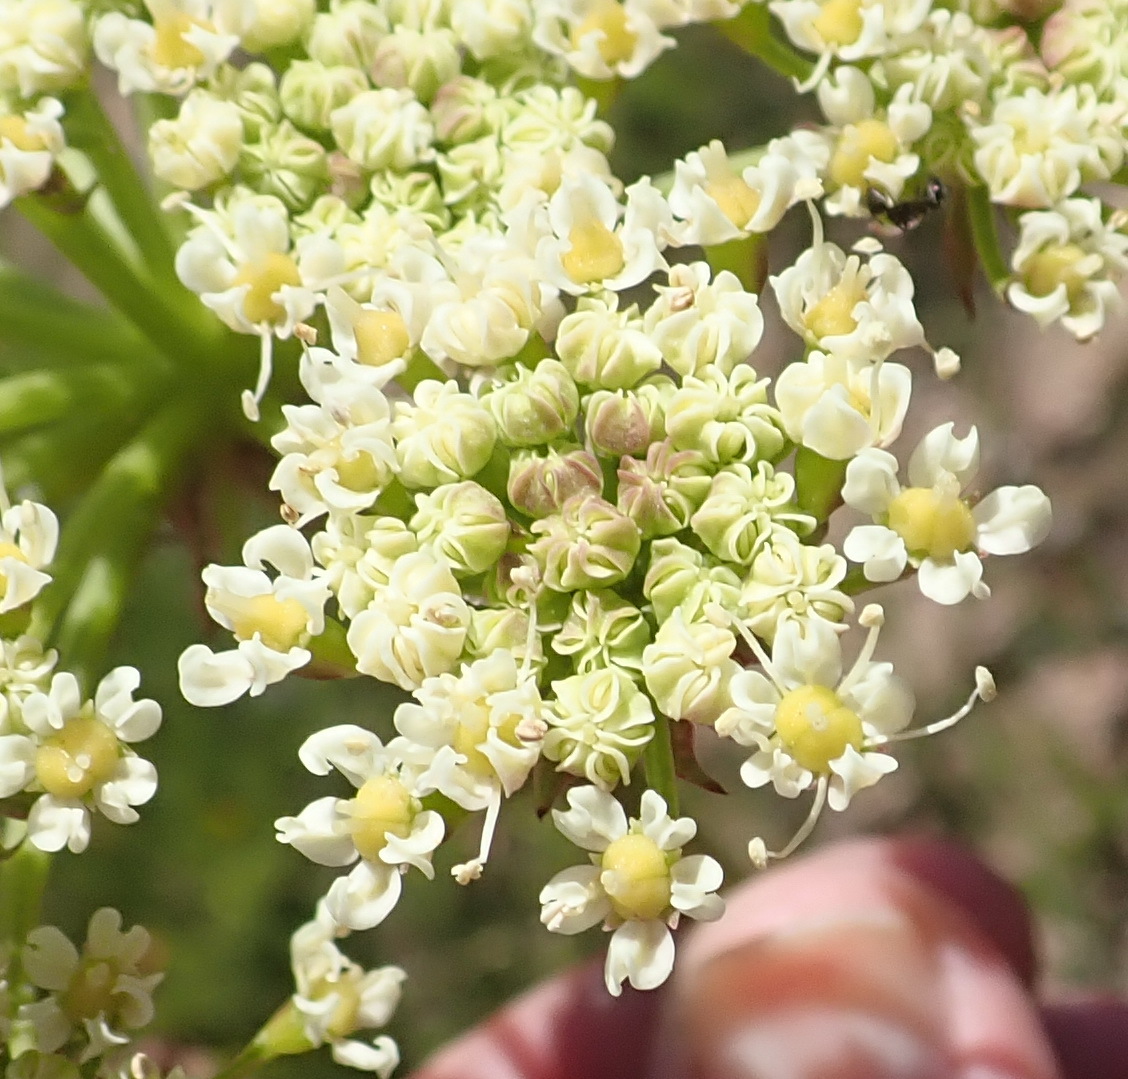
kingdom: Plantae
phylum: Tracheophyta
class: Magnoliopsida
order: Apiales
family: Apiaceae
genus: Nanobubon
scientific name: Nanobubon capillaceum
